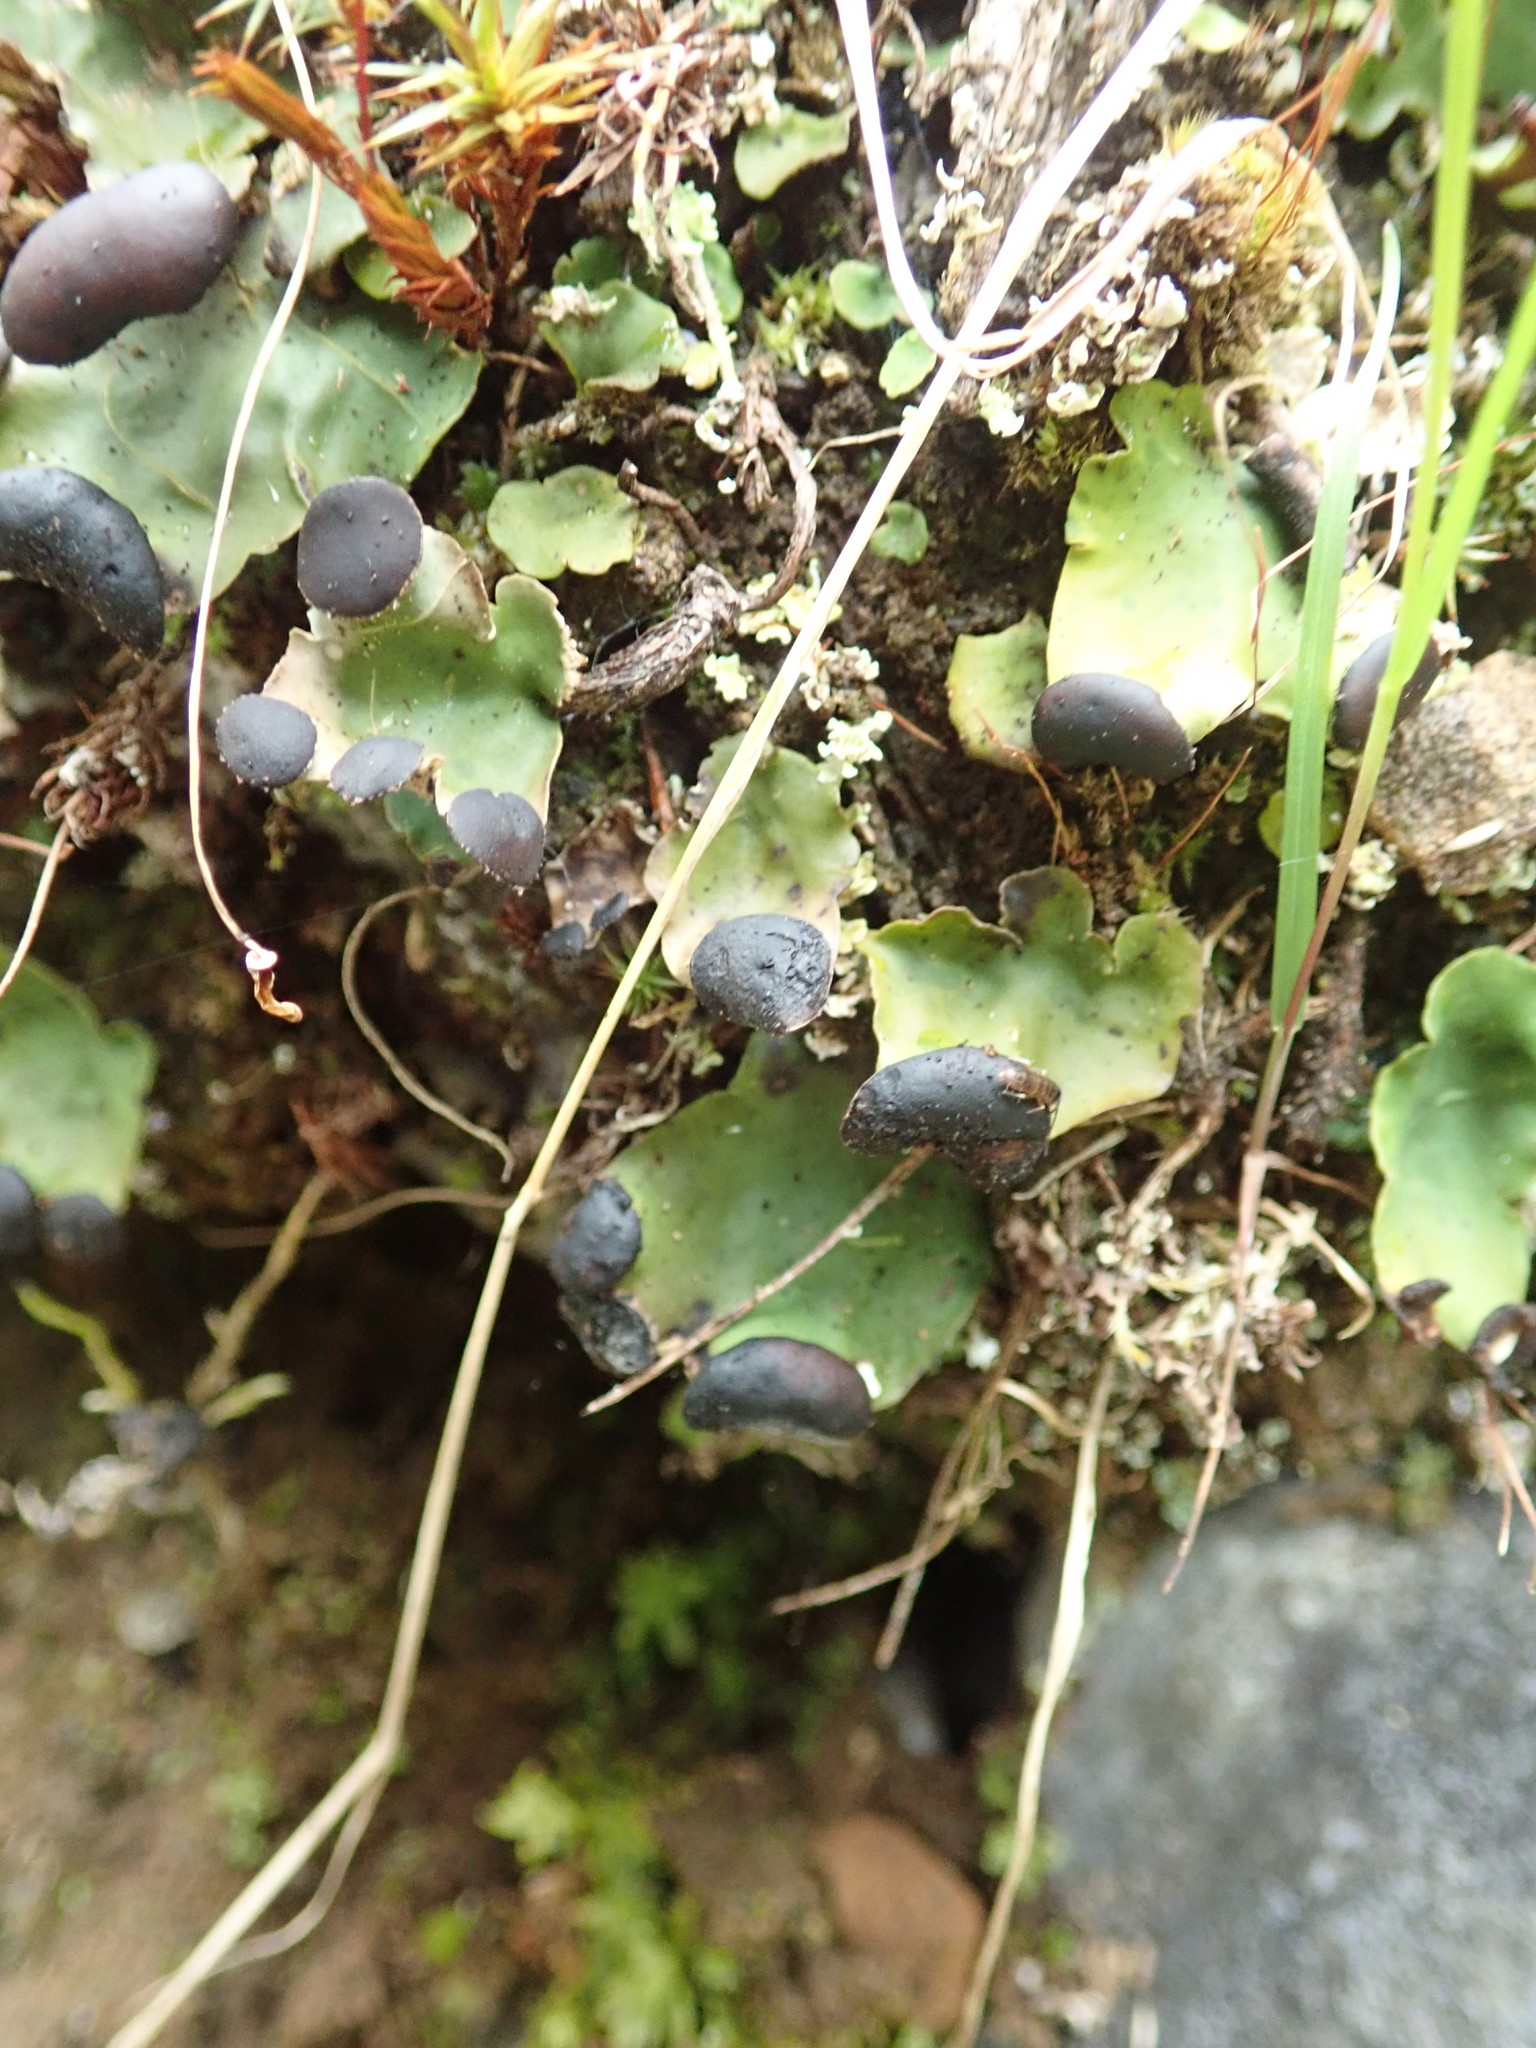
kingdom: Fungi
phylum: Ascomycota
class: Lecanoromycetes
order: Peltigerales
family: Peltigeraceae
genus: Peltigera
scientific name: Peltigera venosa
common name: Pixie gowns lichen
